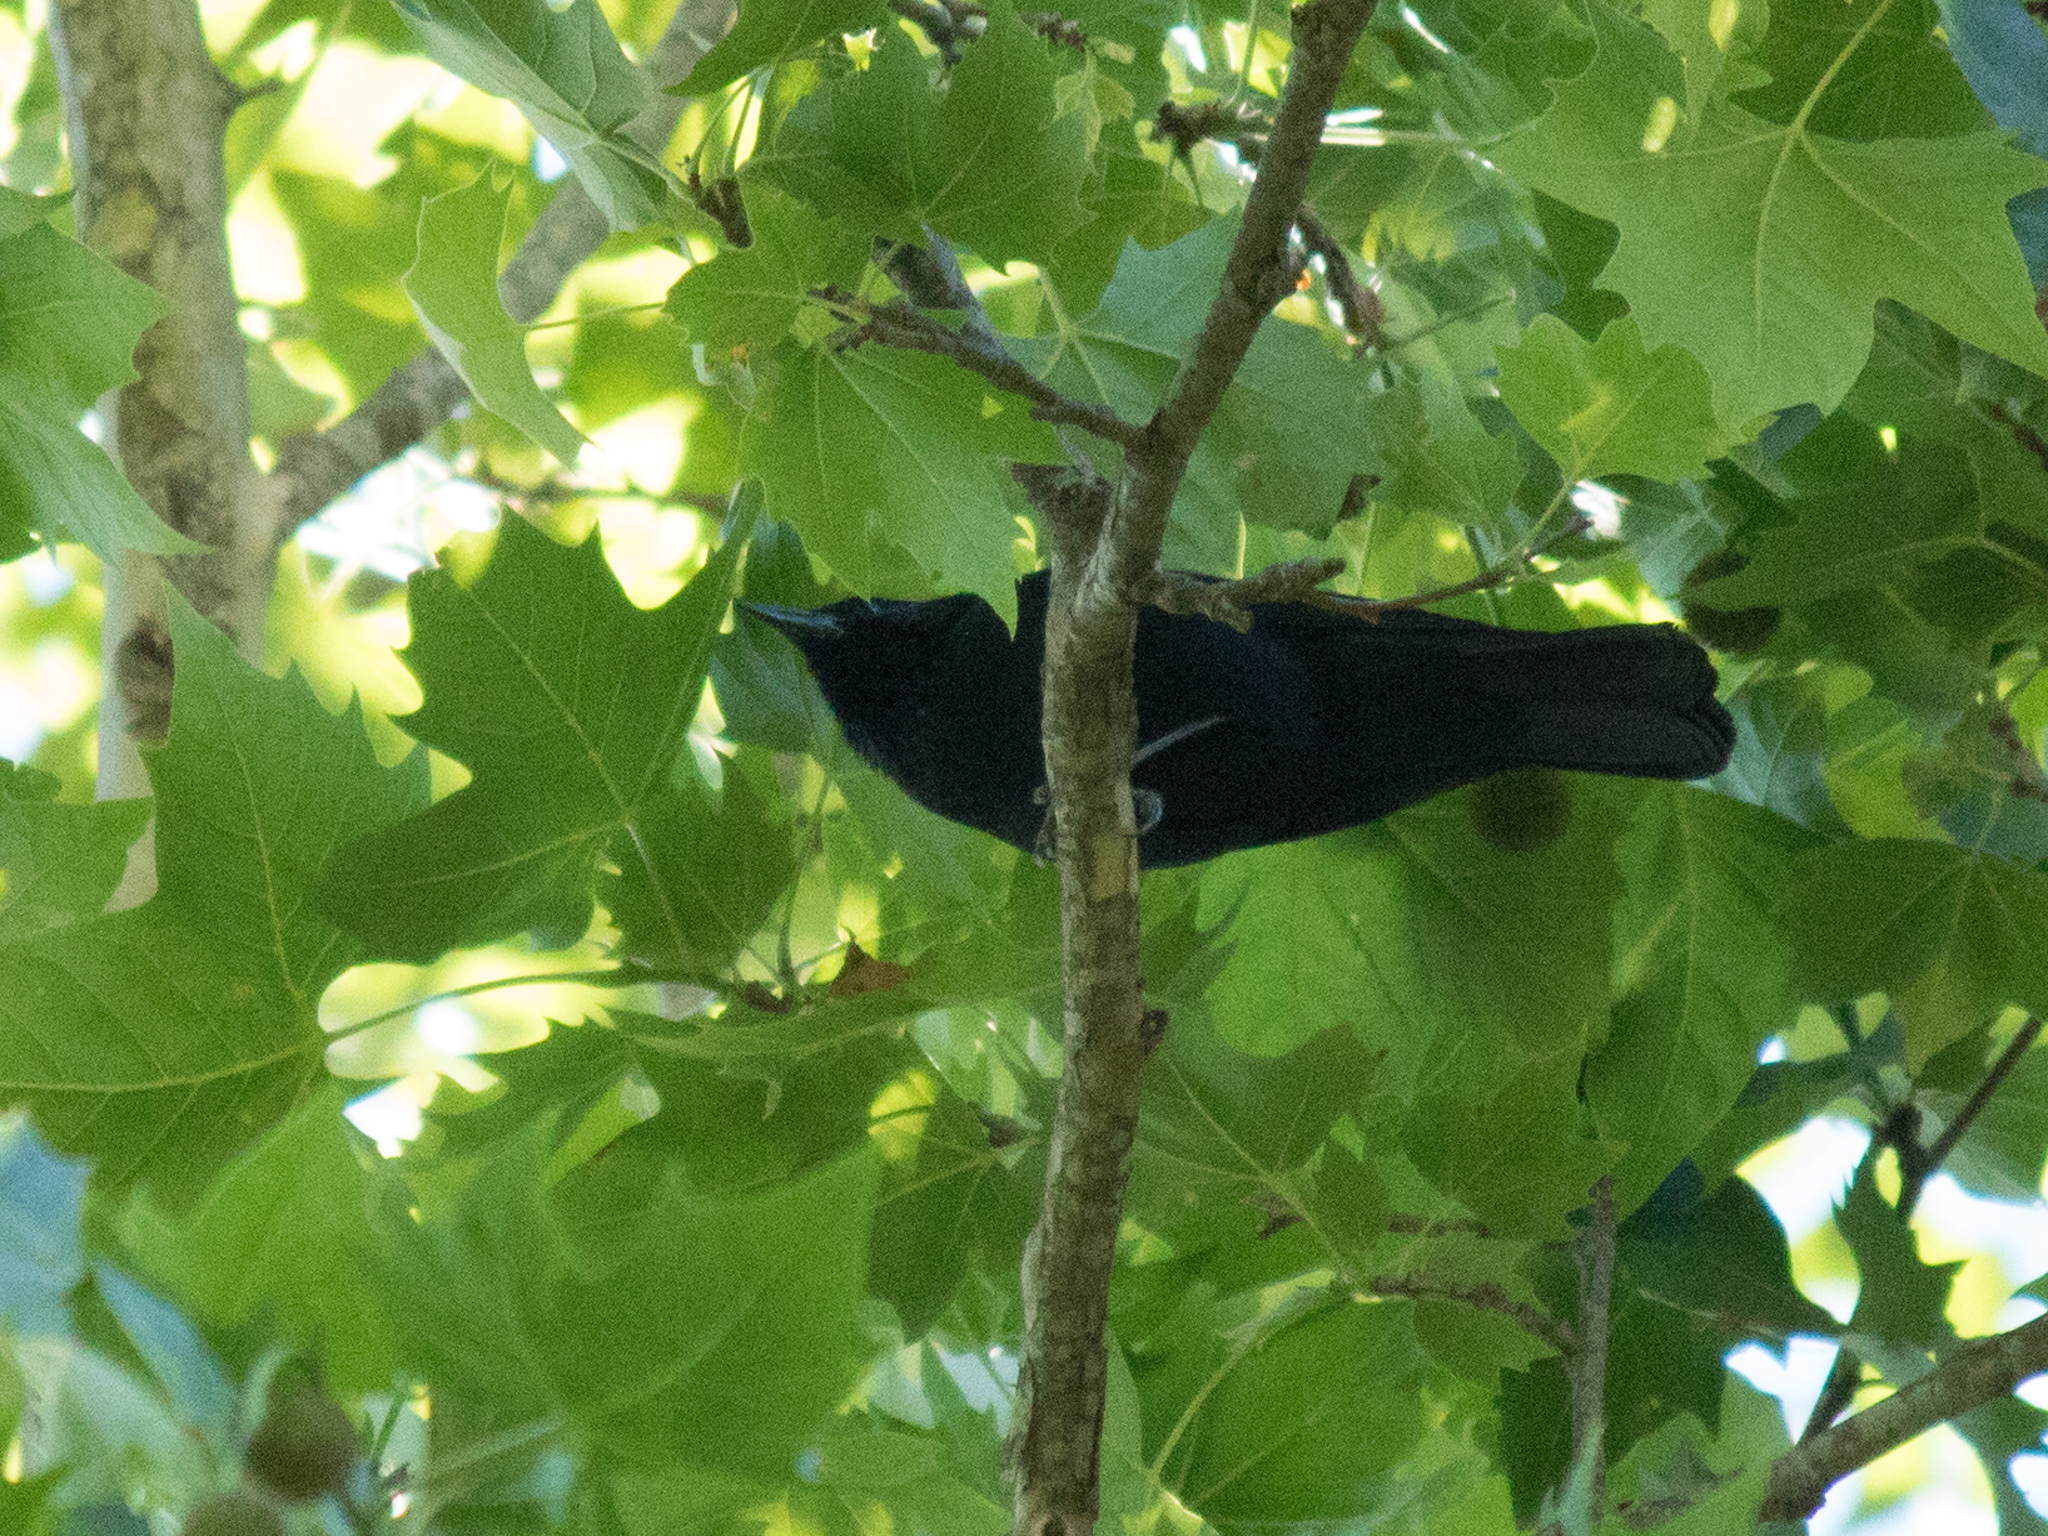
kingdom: Animalia
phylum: Chordata
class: Aves
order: Passeriformes
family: Icteridae
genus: Gnorimopsar
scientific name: Gnorimopsar chopi
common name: Chopi blackbird
